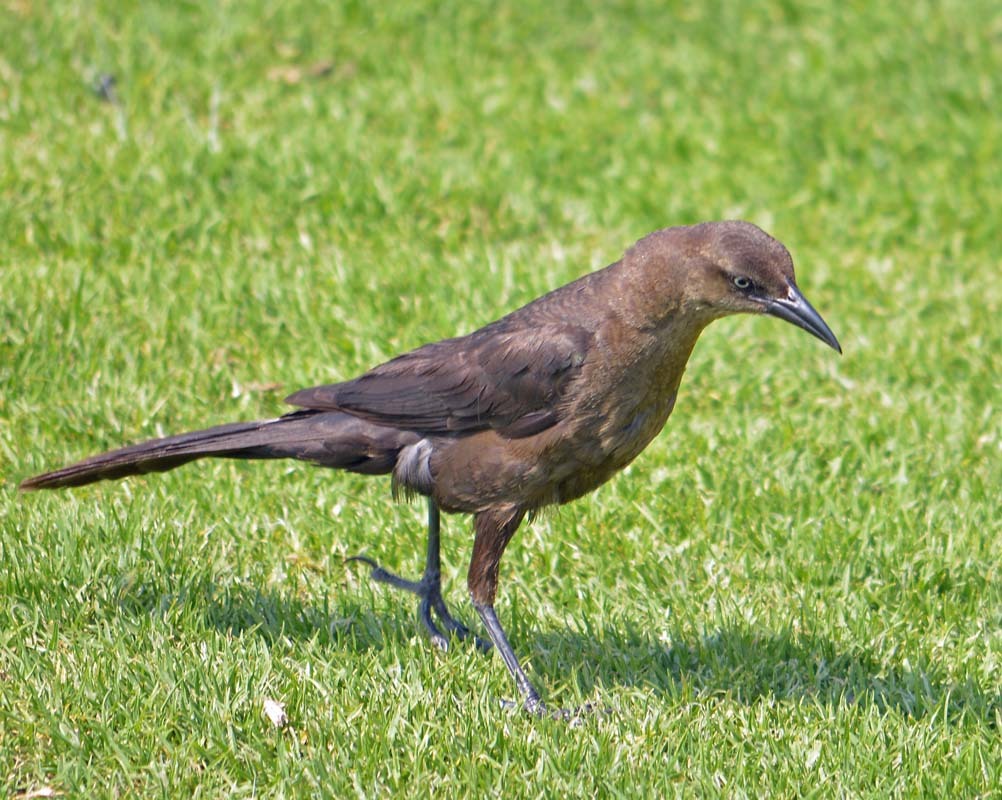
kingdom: Animalia
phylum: Chordata
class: Aves
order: Passeriformes
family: Icteridae
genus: Quiscalus
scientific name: Quiscalus mexicanus
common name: Great-tailed grackle
